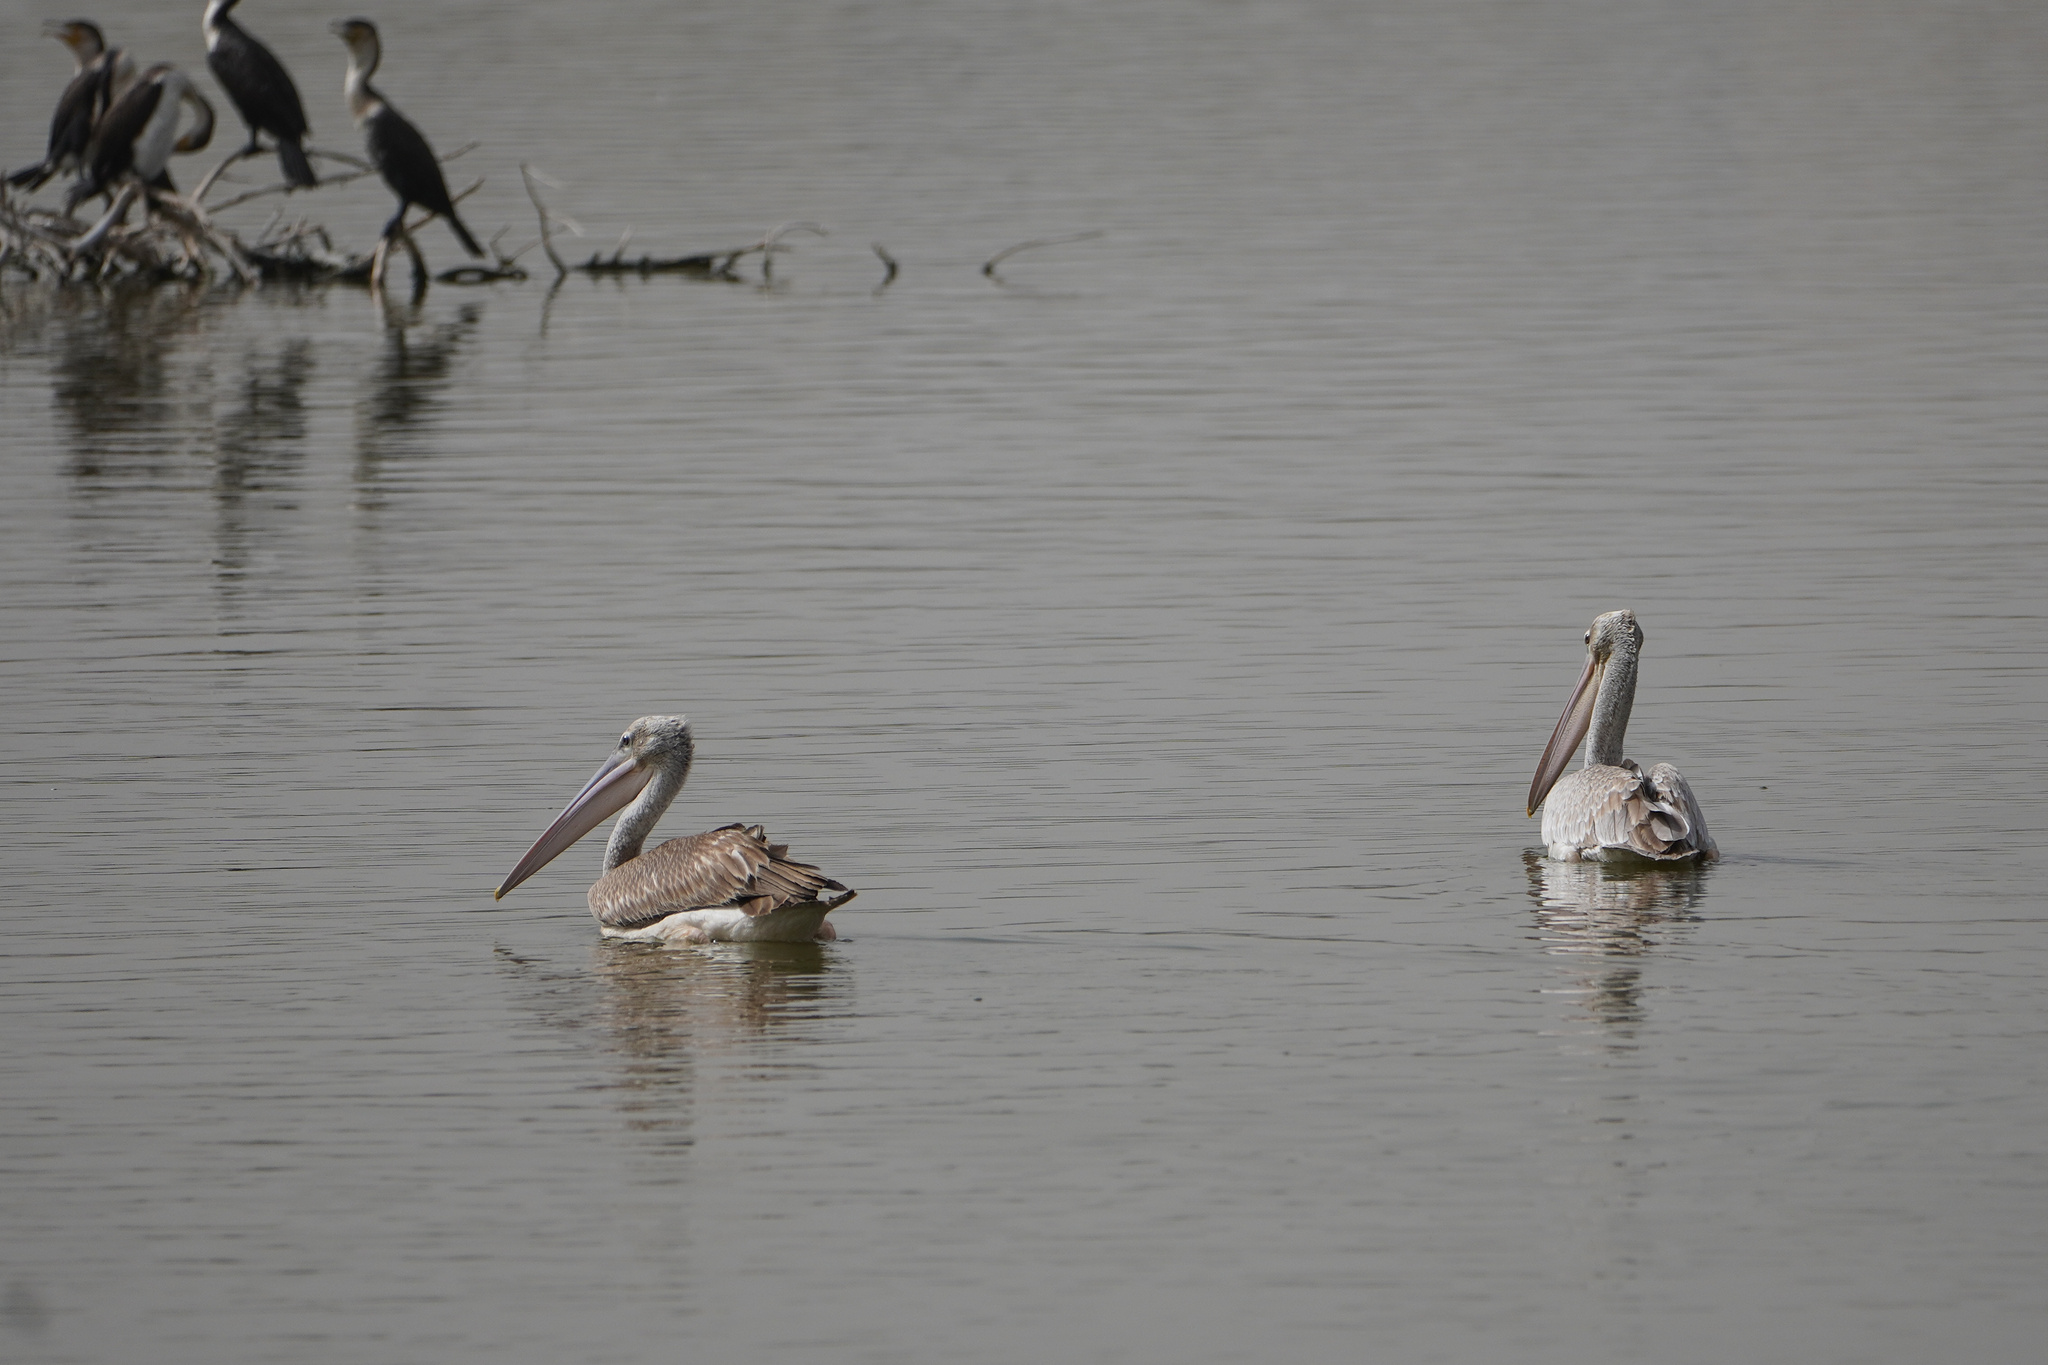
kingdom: Animalia
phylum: Chordata
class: Aves
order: Pelecaniformes
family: Pelecanidae
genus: Pelecanus
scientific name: Pelecanus rufescens
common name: Pink-backed pelican
